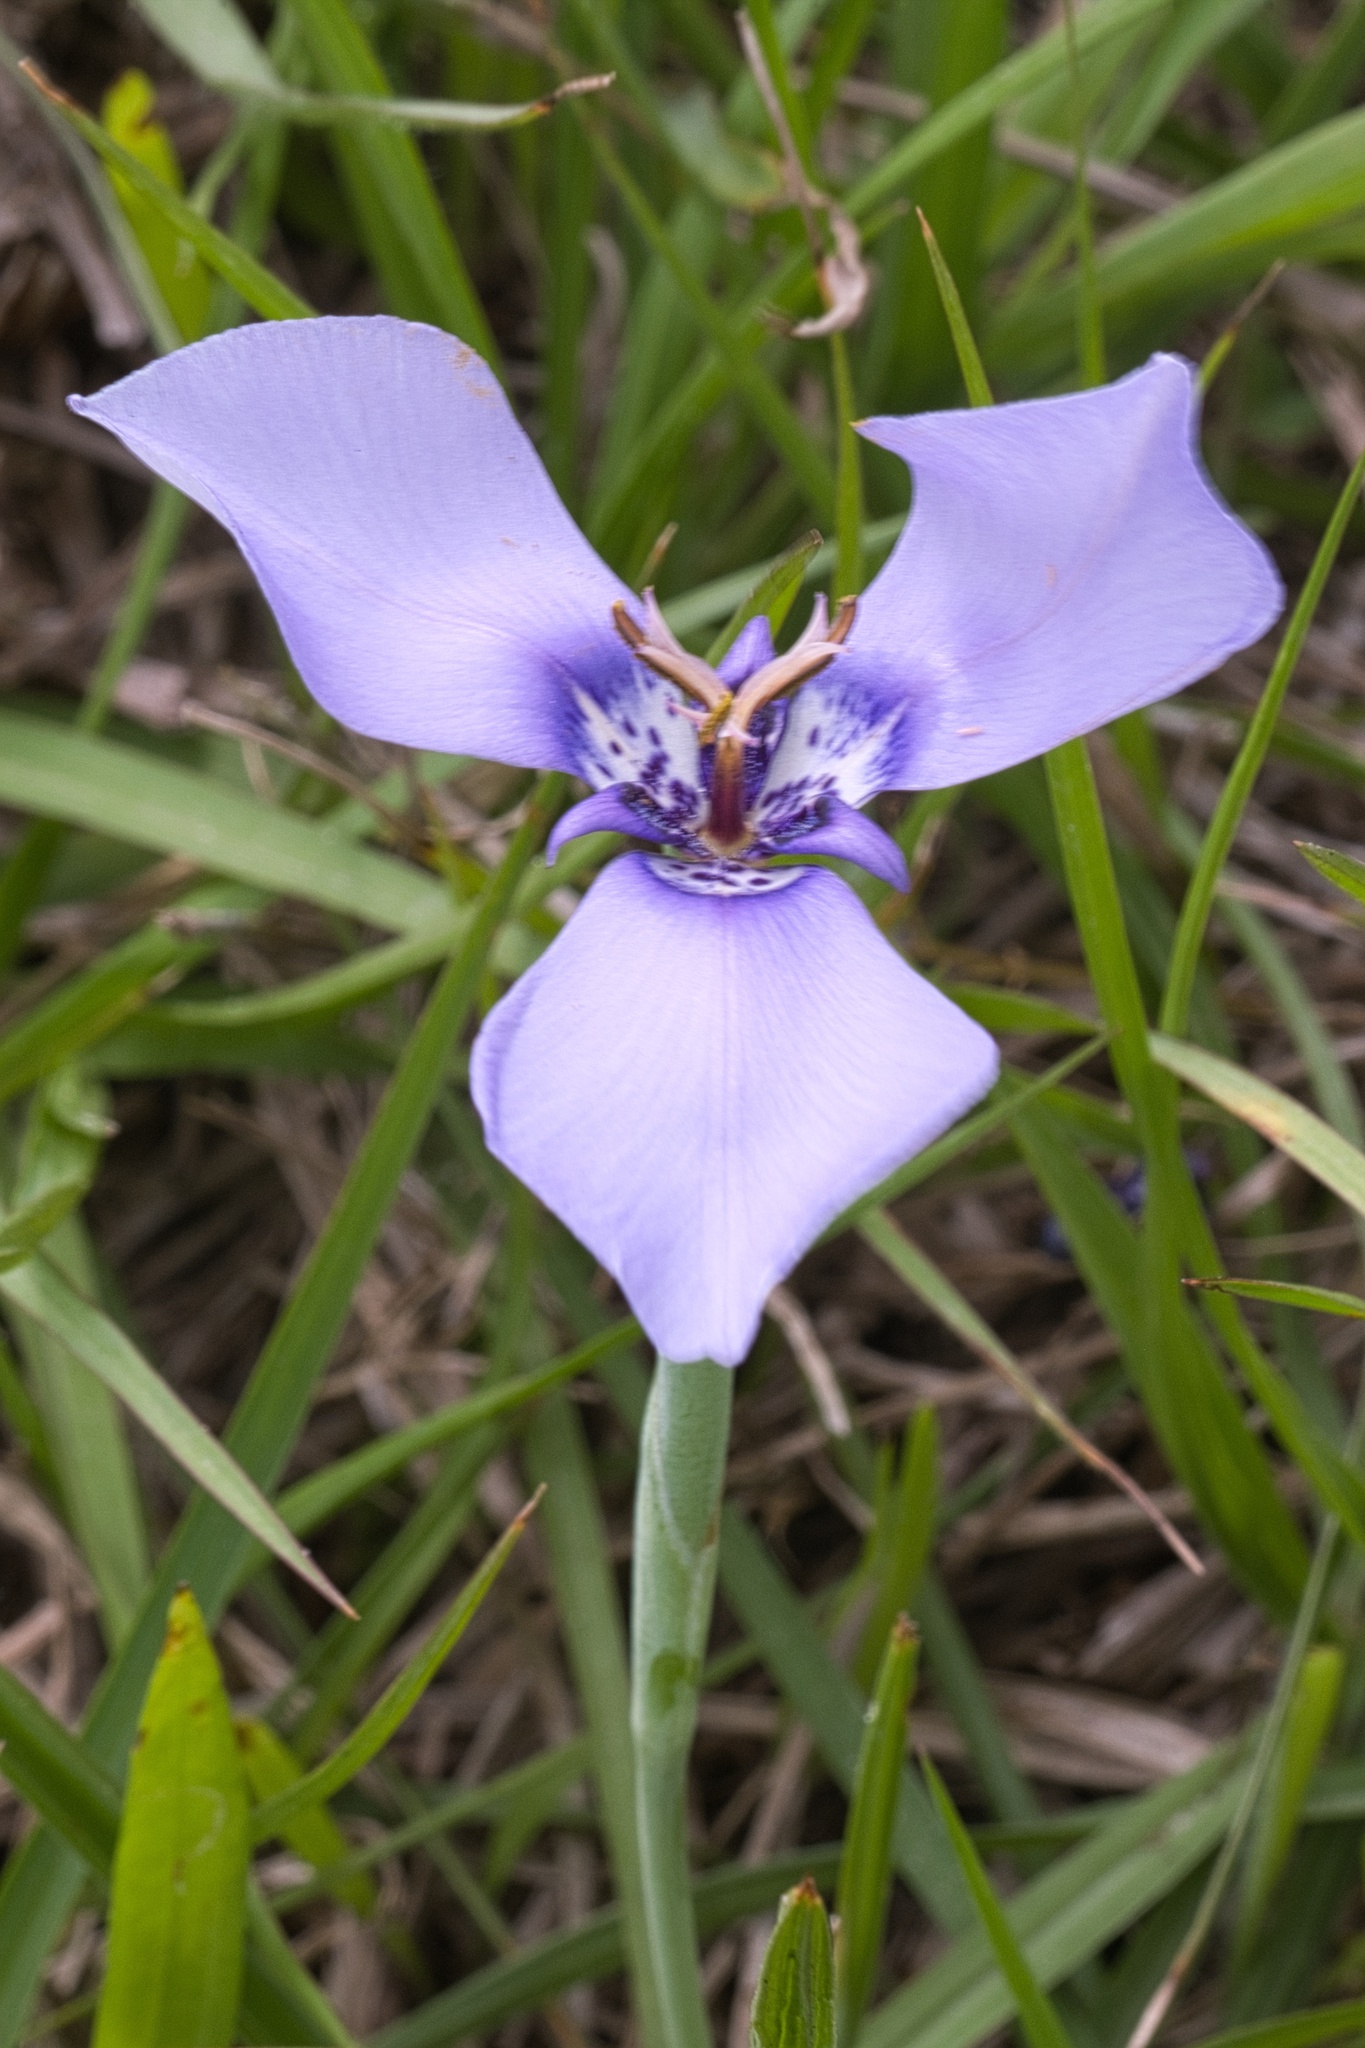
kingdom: Plantae
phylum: Tracheophyta
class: Liliopsida
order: Asparagales
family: Iridaceae
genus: Herbertia
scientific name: Herbertia lahue
